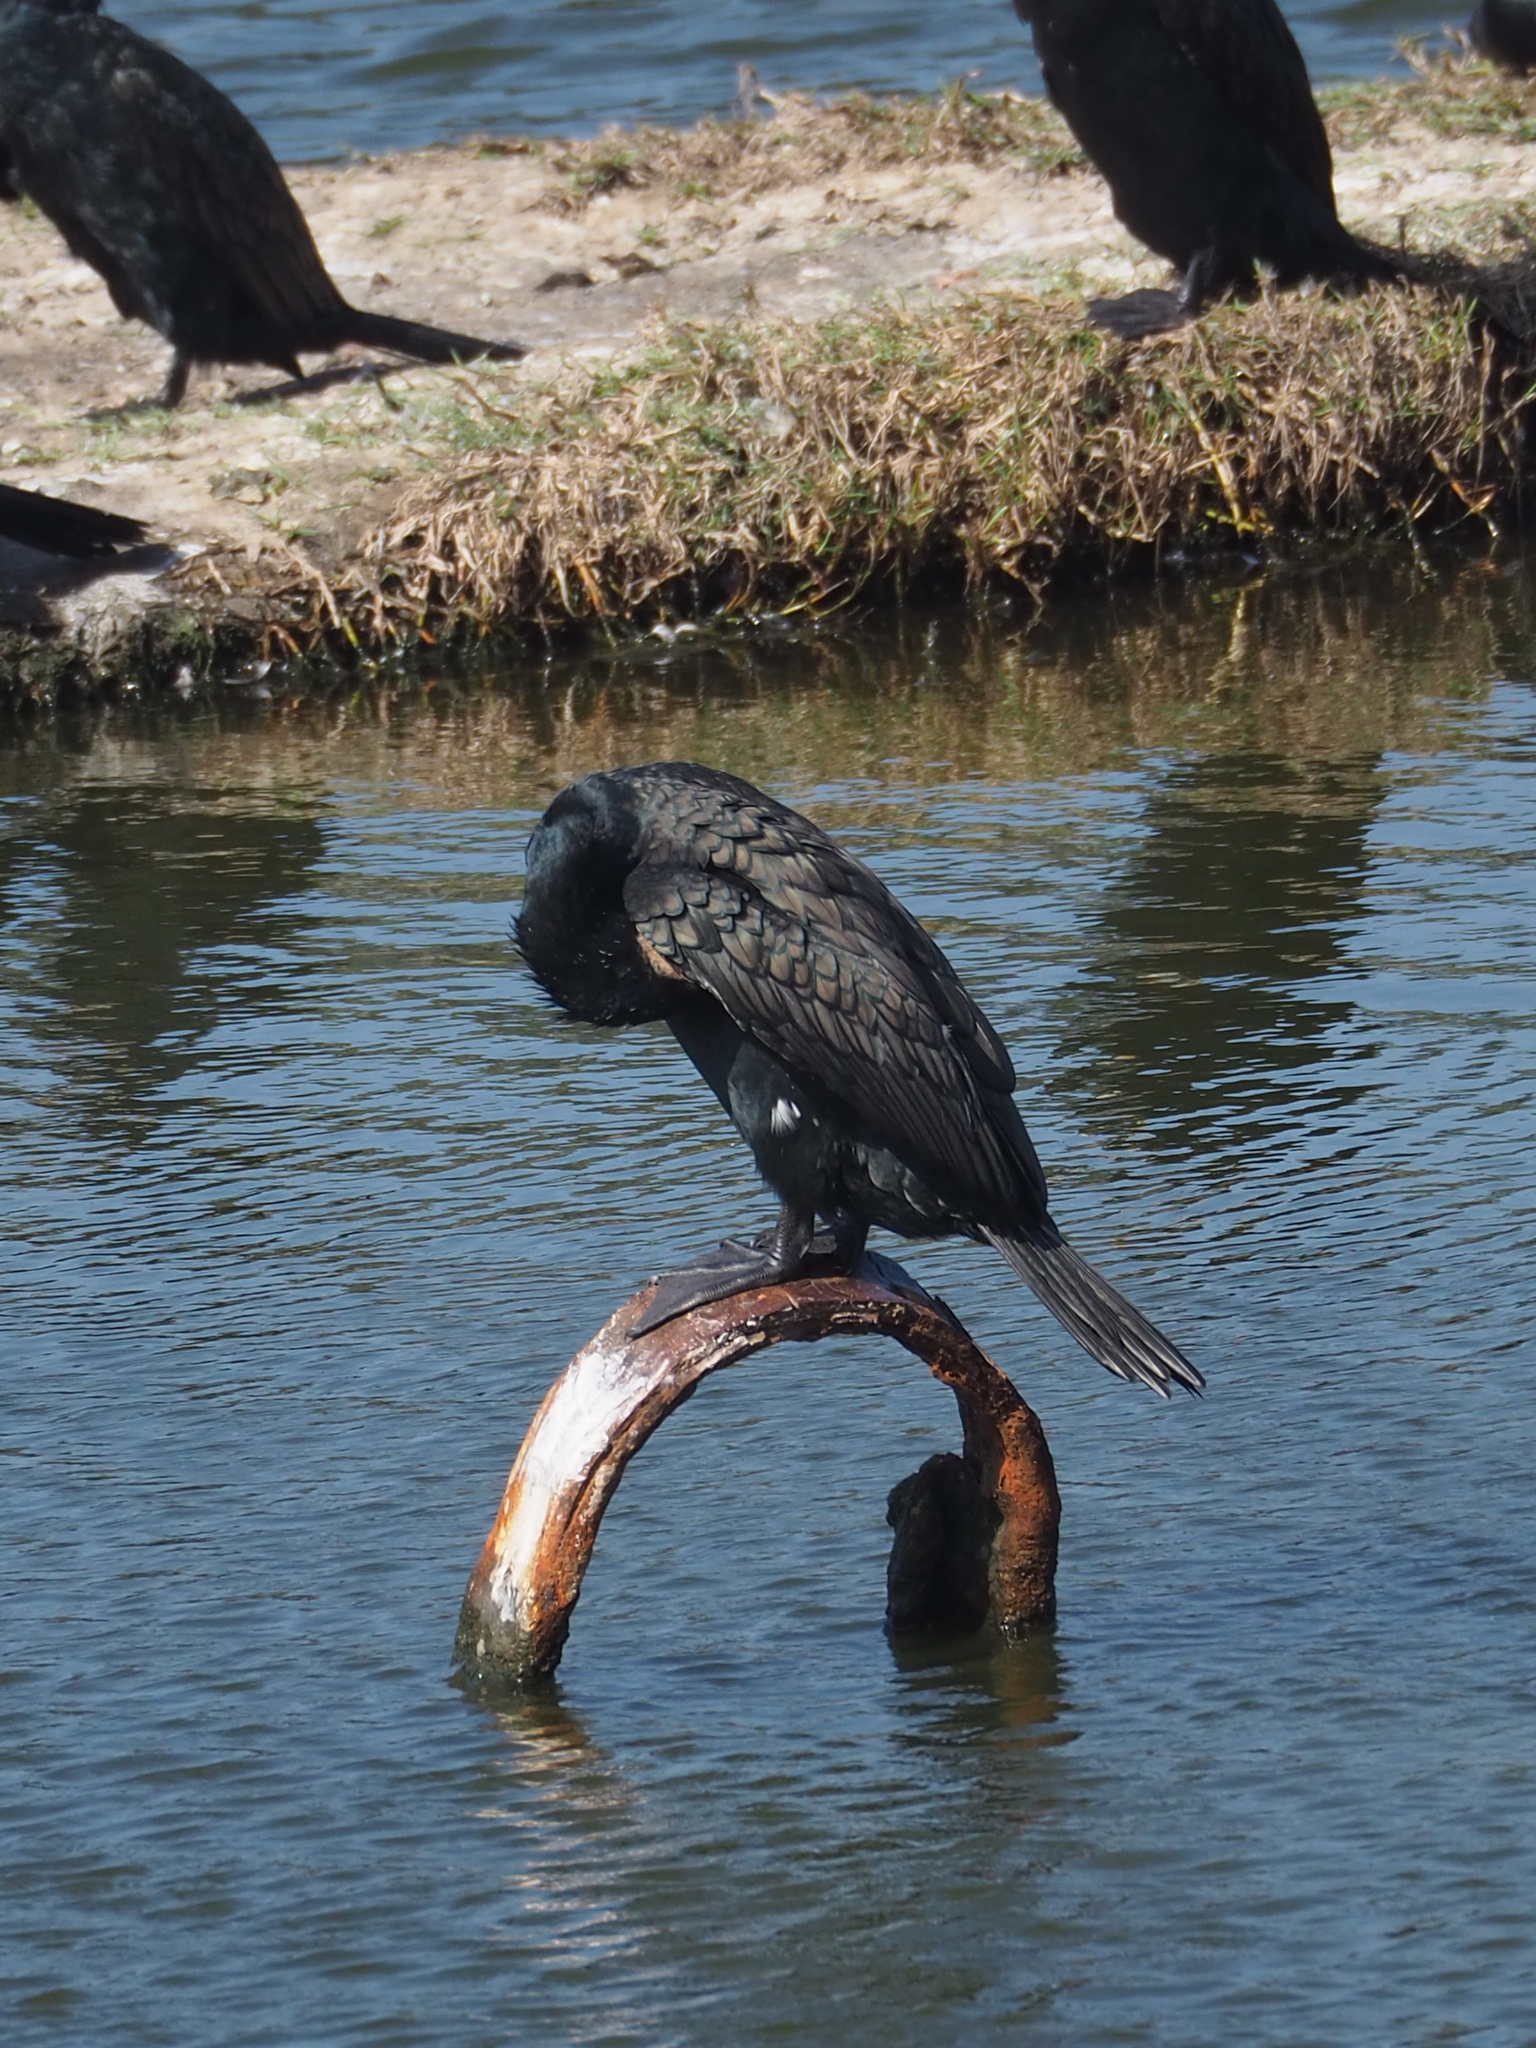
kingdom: Animalia
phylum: Chordata
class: Aves
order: Suliformes
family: Phalacrocoracidae
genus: Phalacrocorax
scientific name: Phalacrocorax carbo
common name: Great cormorant
